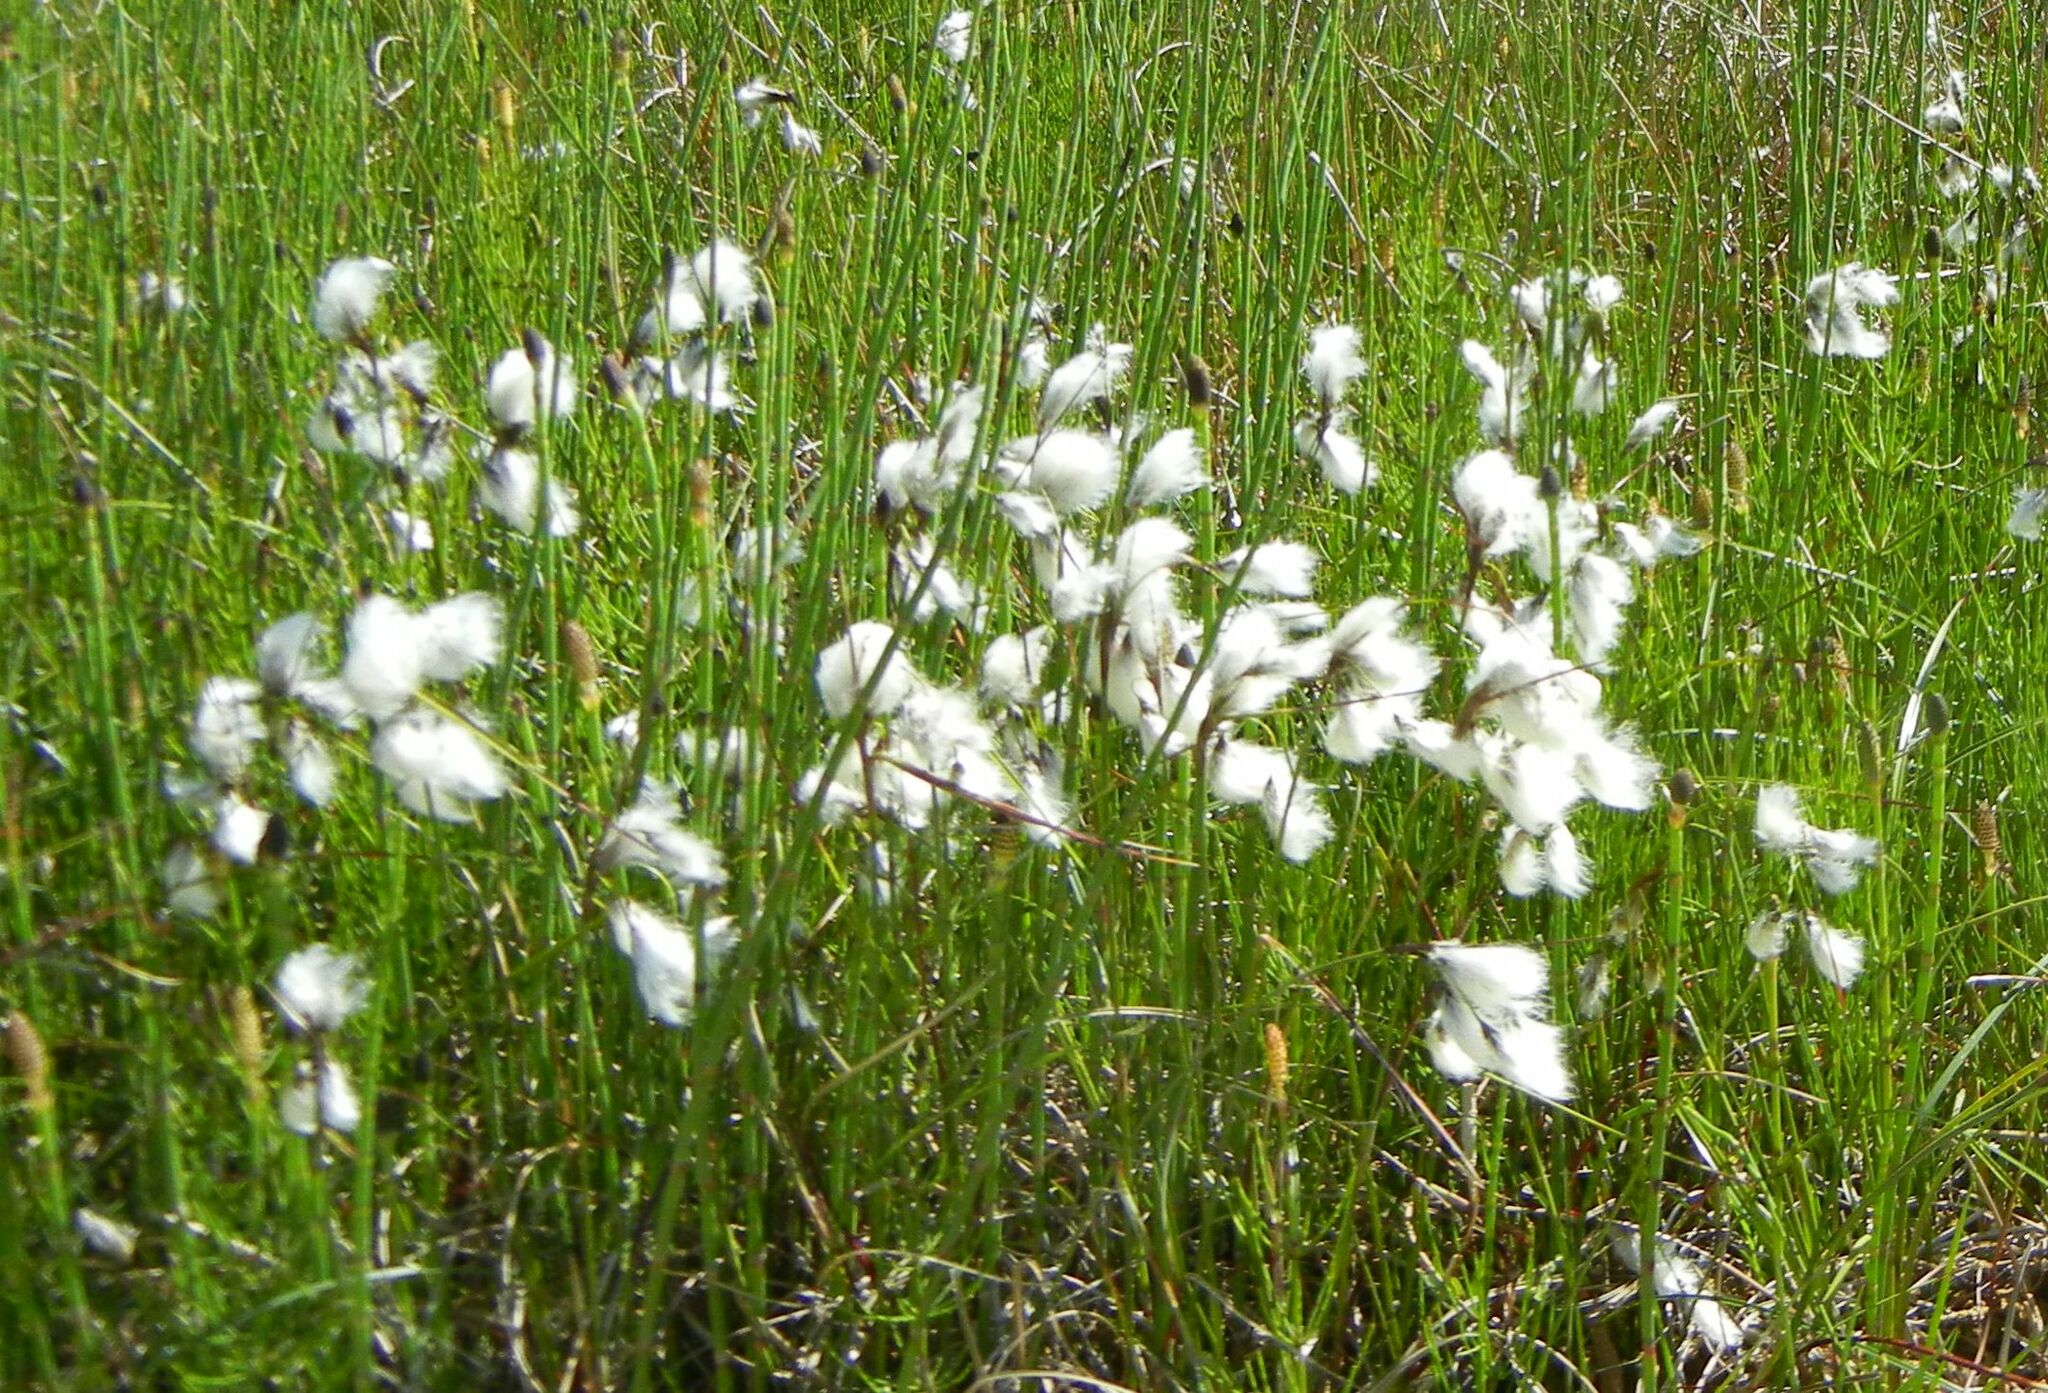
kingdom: Plantae
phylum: Tracheophyta
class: Liliopsida
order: Poales
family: Cyperaceae
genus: Eriophorum
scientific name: Eriophorum angustifolium
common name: Common cottongrass
